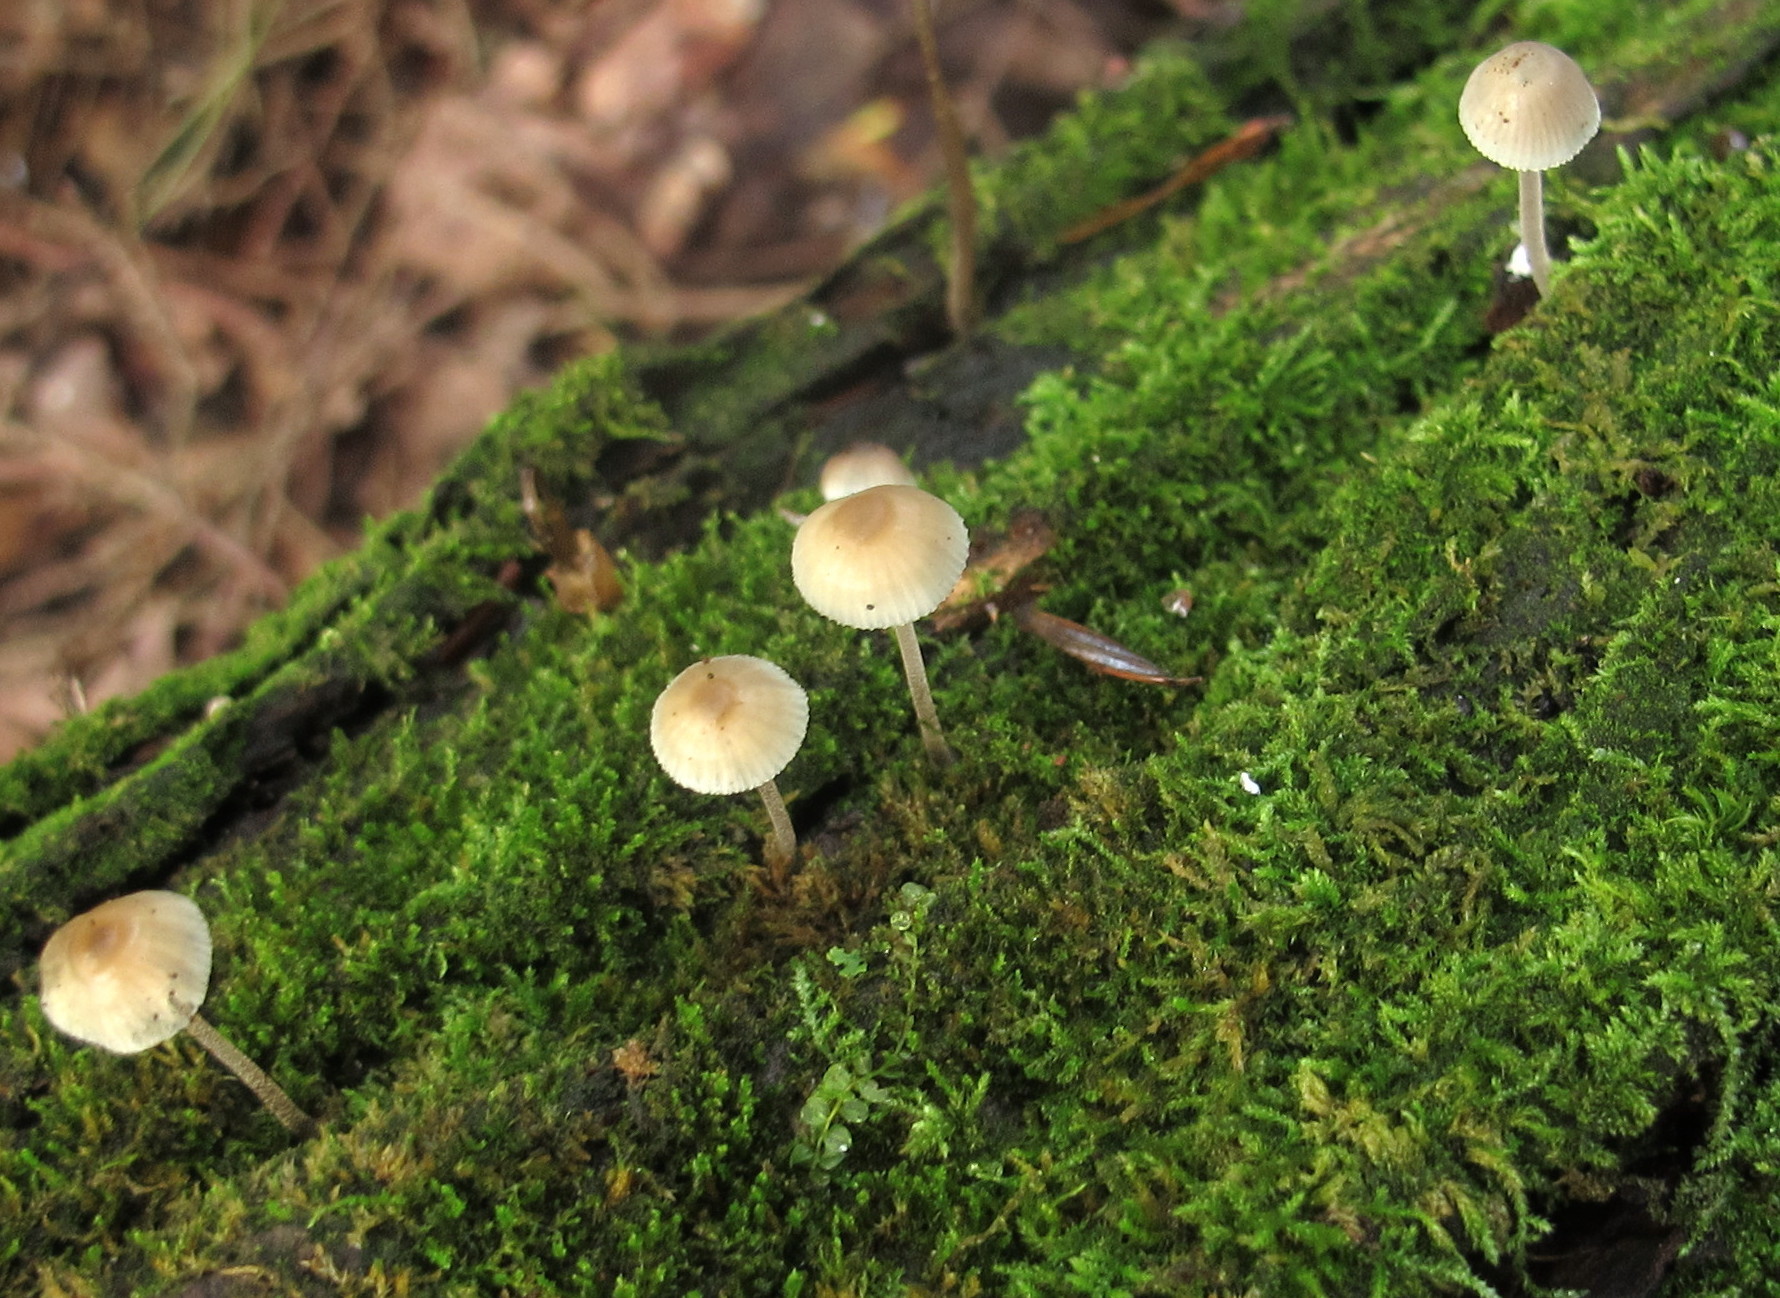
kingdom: Fungi
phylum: Basidiomycota
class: Agaricomycetes
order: Agaricales
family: Mycenaceae
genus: Mycena
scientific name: Mycena subcaerulea
